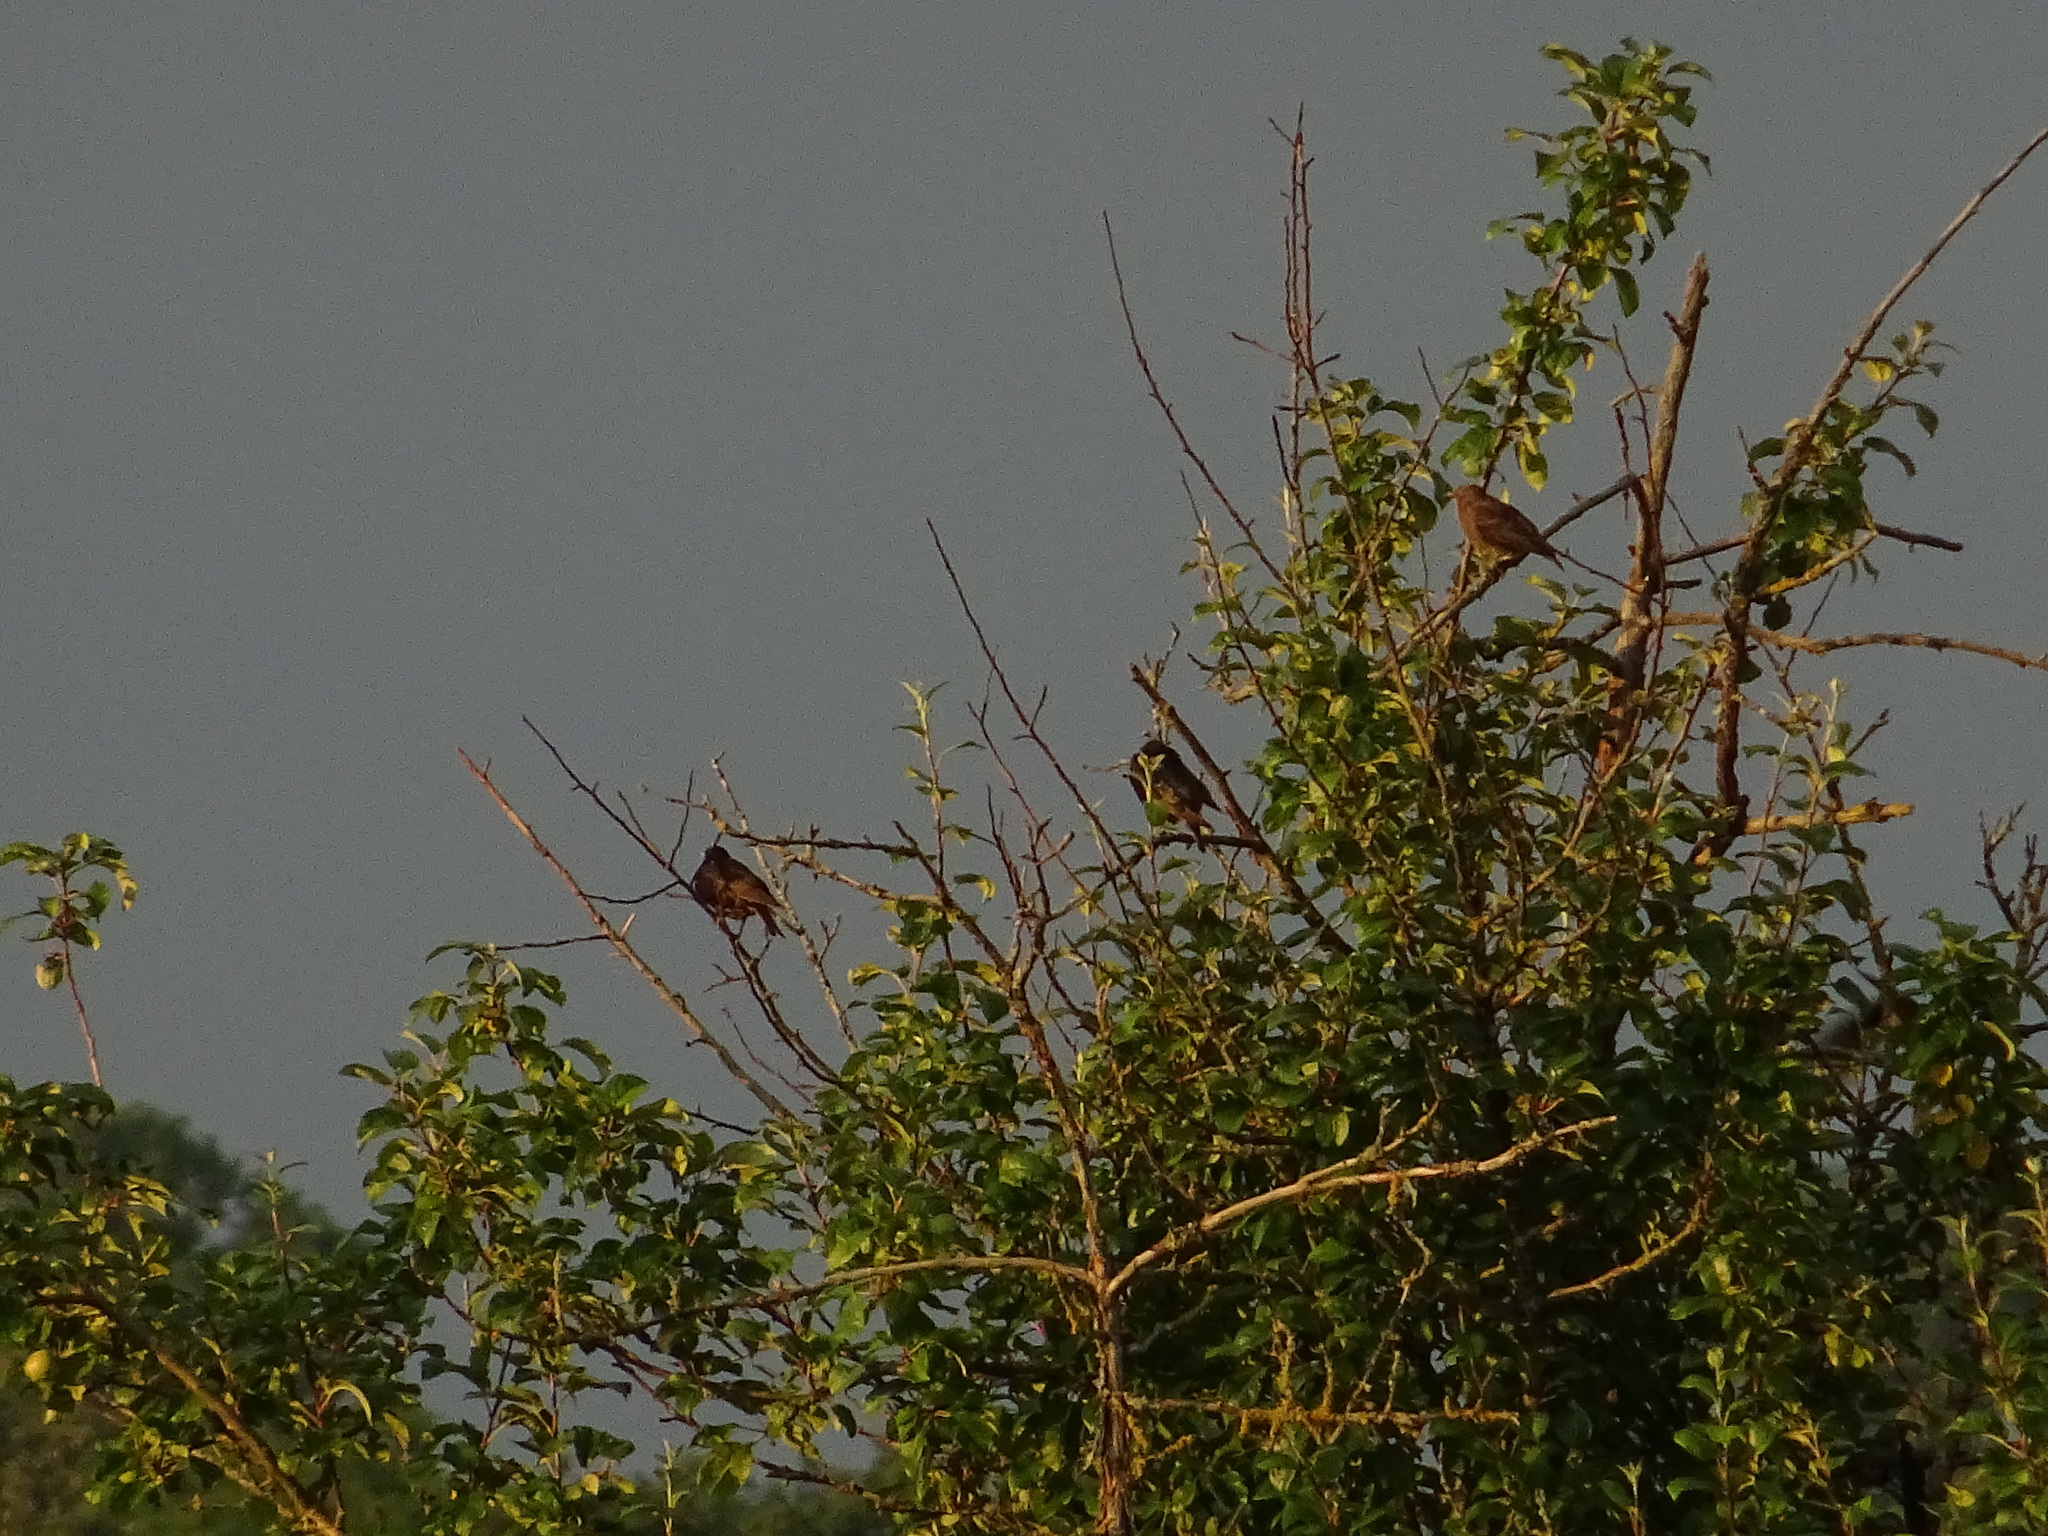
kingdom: Animalia
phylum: Chordata
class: Aves
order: Passeriformes
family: Sturnidae
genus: Sturnus
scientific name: Sturnus vulgaris
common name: Common starling
